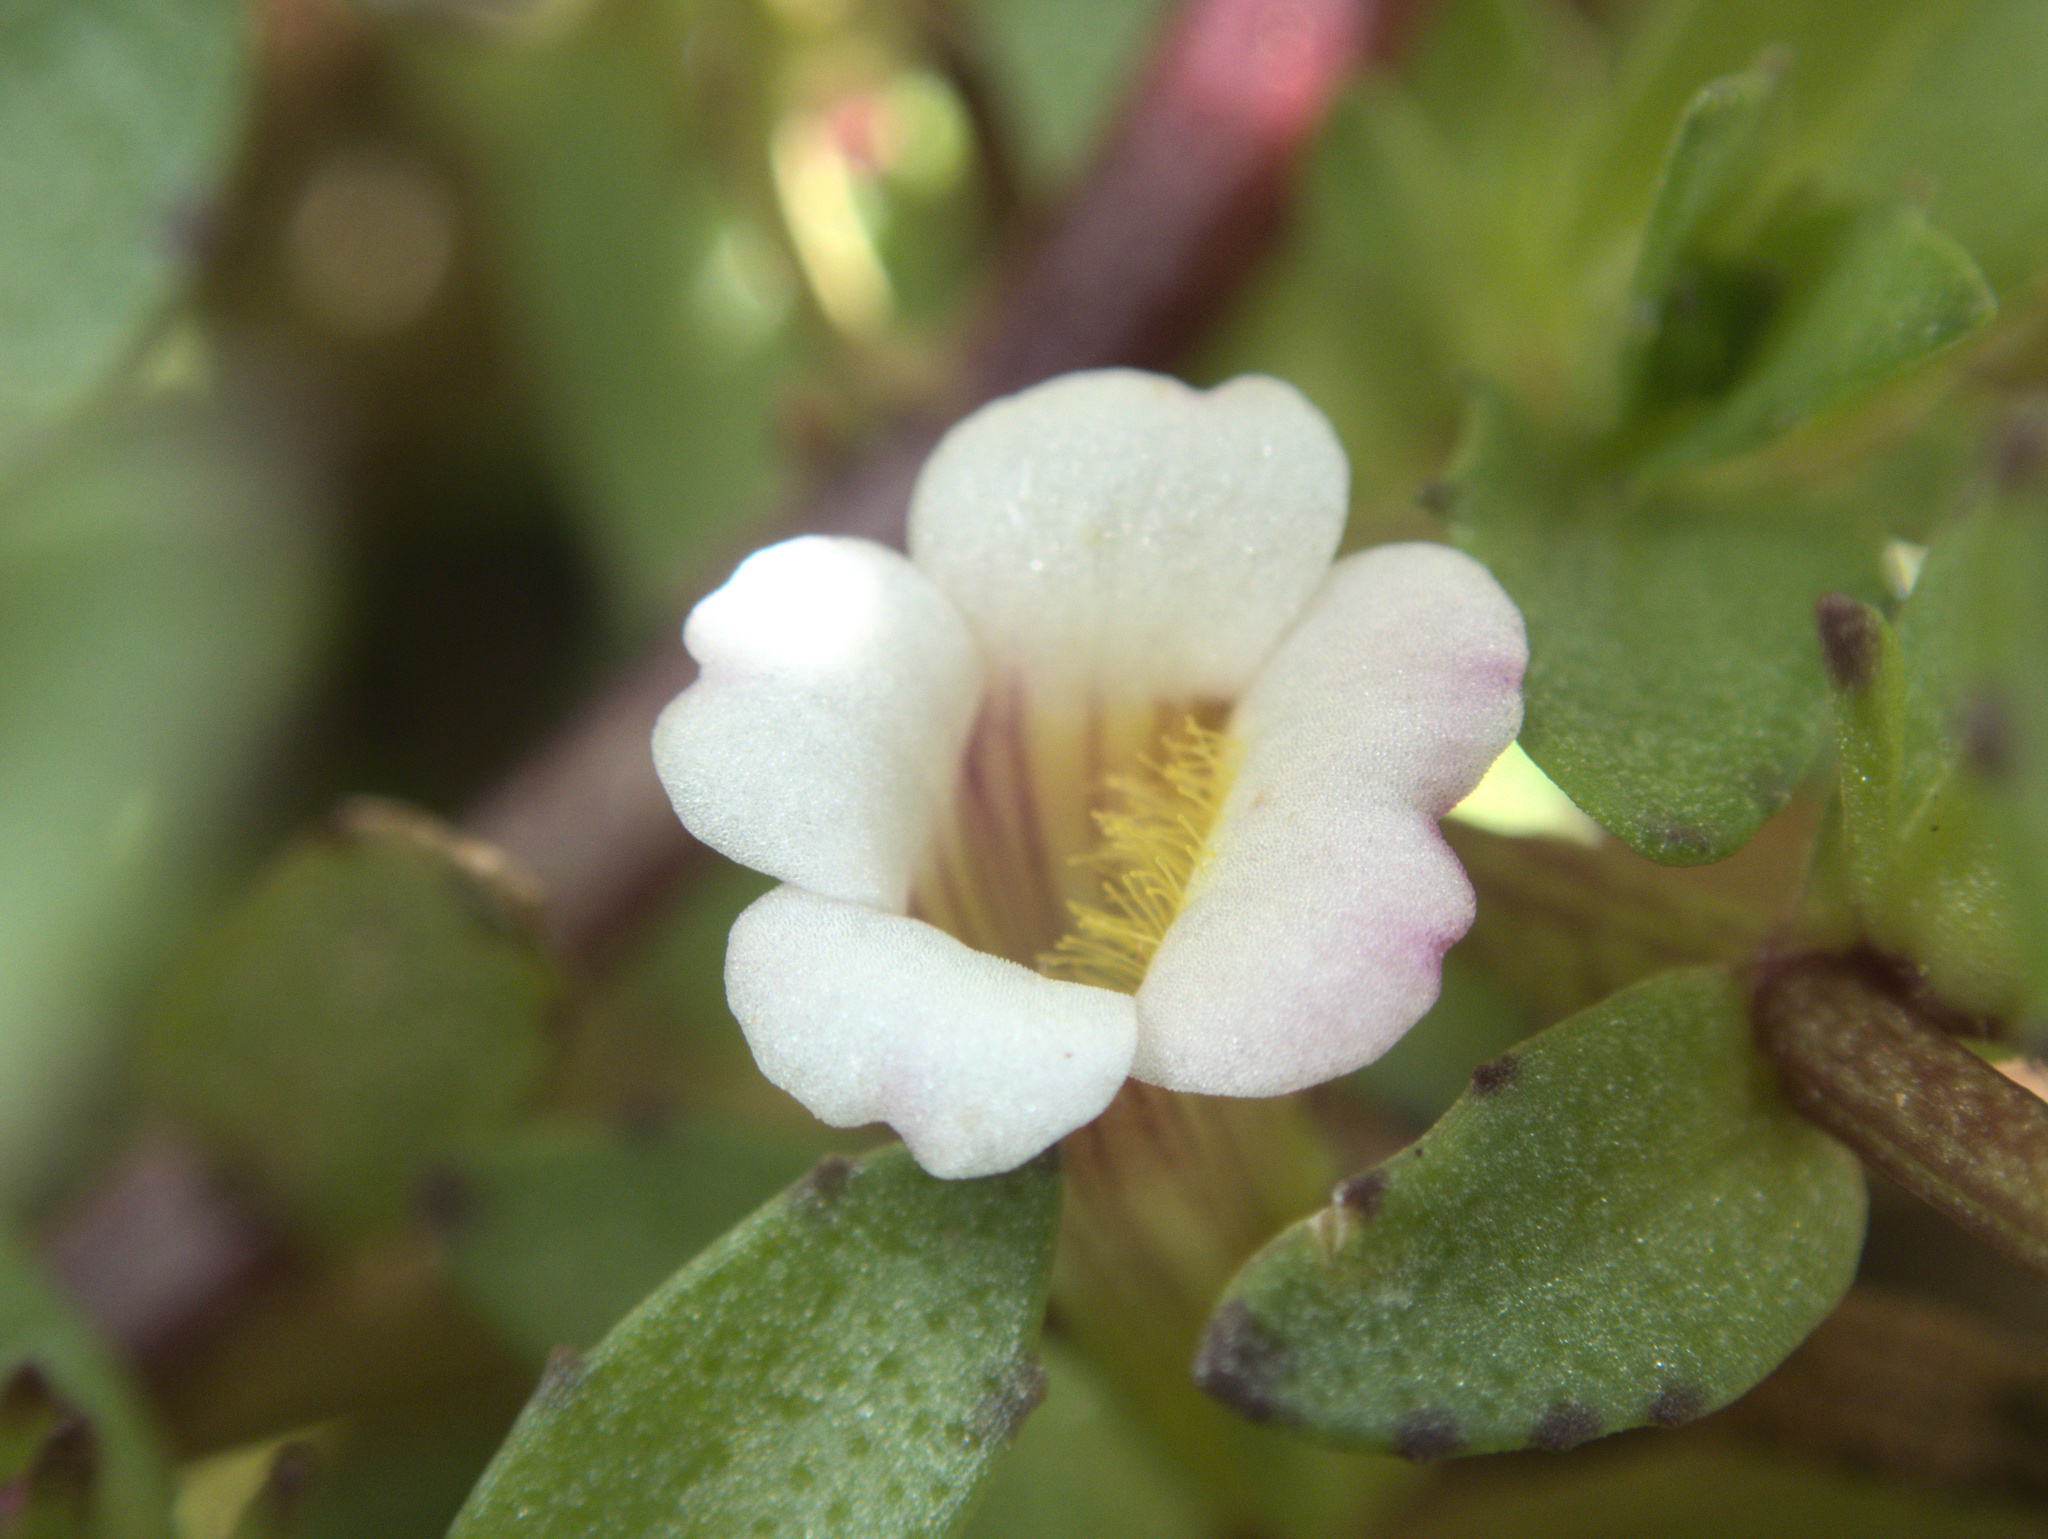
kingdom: Plantae
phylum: Tracheophyta
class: Magnoliopsida
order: Lamiales
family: Plantaginaceae
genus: Gratiola
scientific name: Gratiola sexdentata
